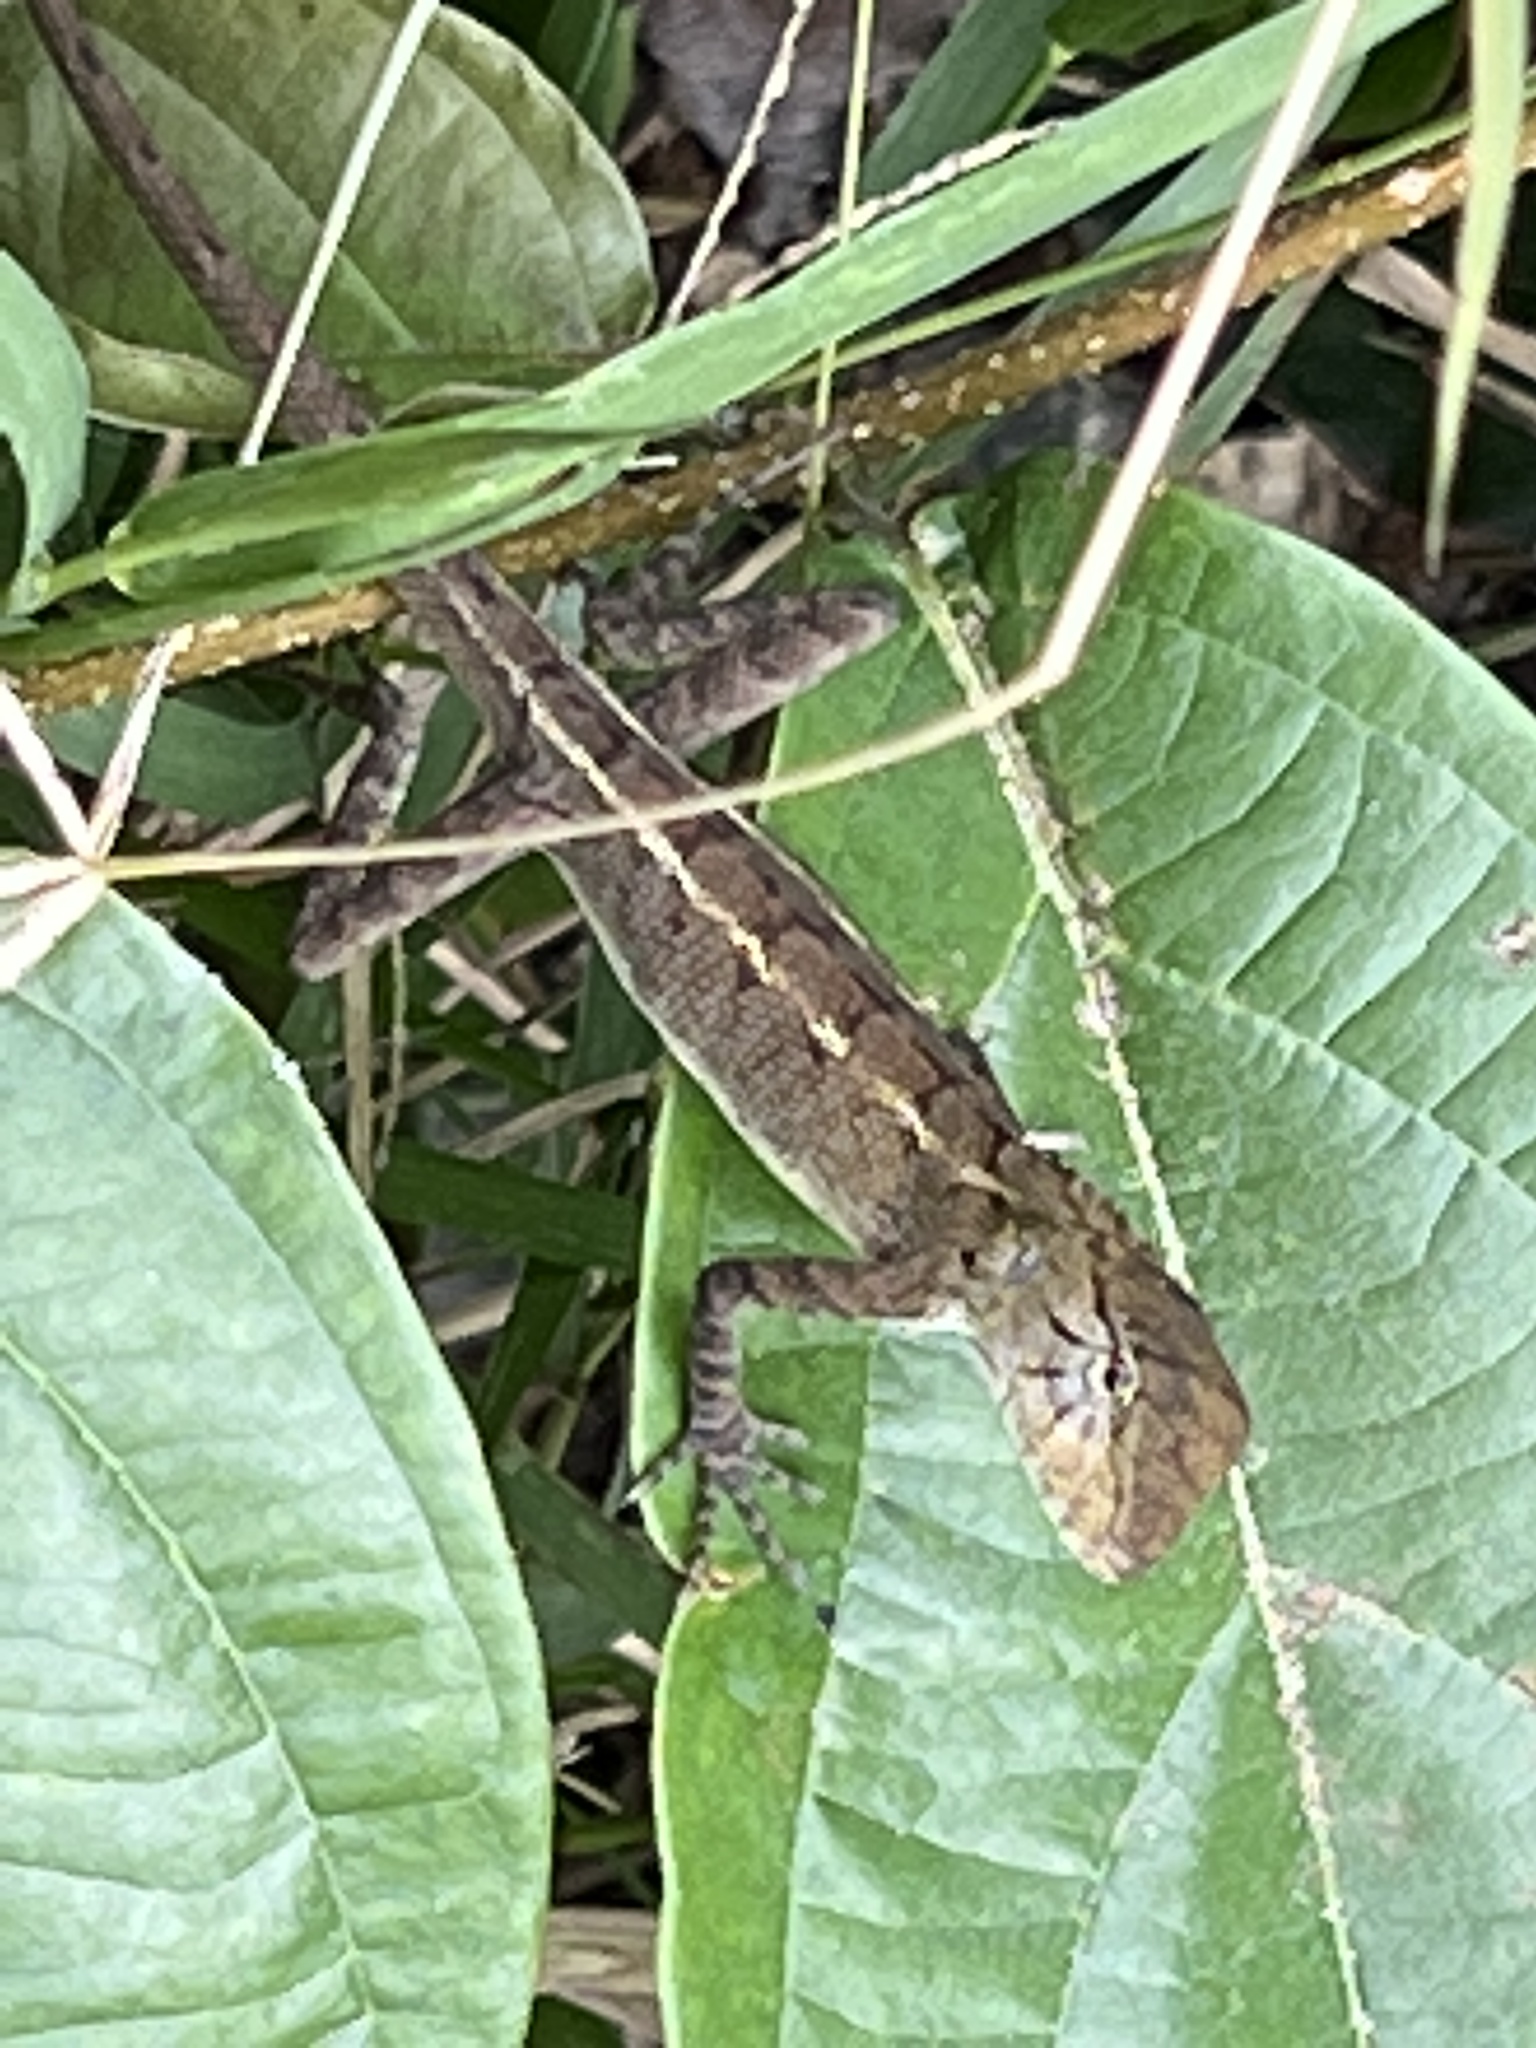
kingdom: Animalia
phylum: Chordata
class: Squamata
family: Agamidae
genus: Calotes
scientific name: Calotes versicolor
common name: Oriental garden lizard
